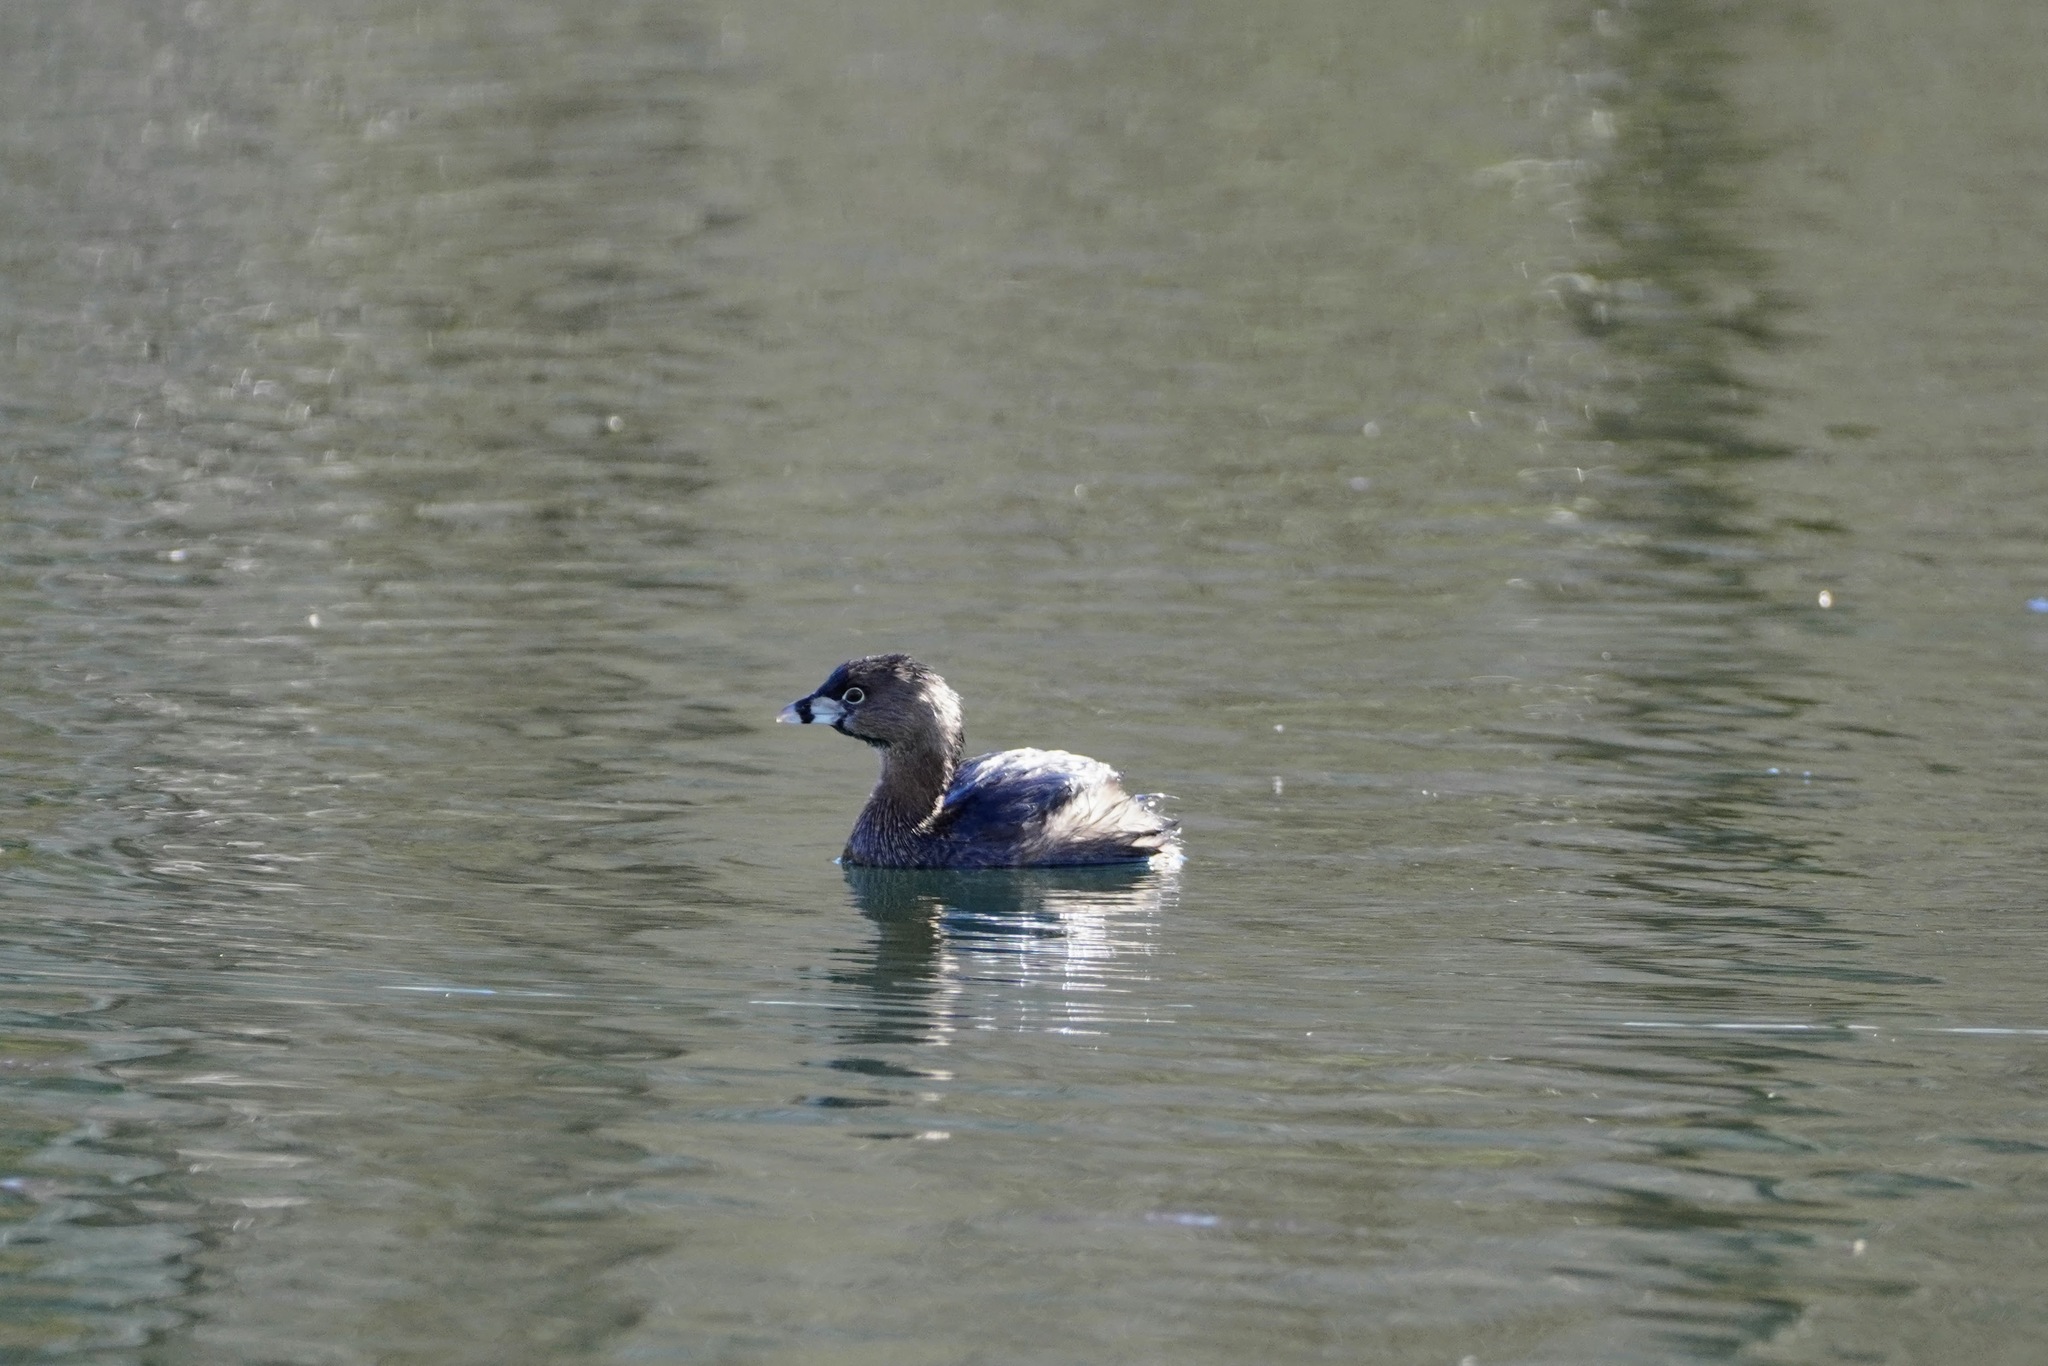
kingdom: Animalia
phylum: Chordata
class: Aves
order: Podicipediformes
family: Podicipedidae
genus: Podilymbus
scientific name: Podilymbus podiceps
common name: Pied-billed grebe
